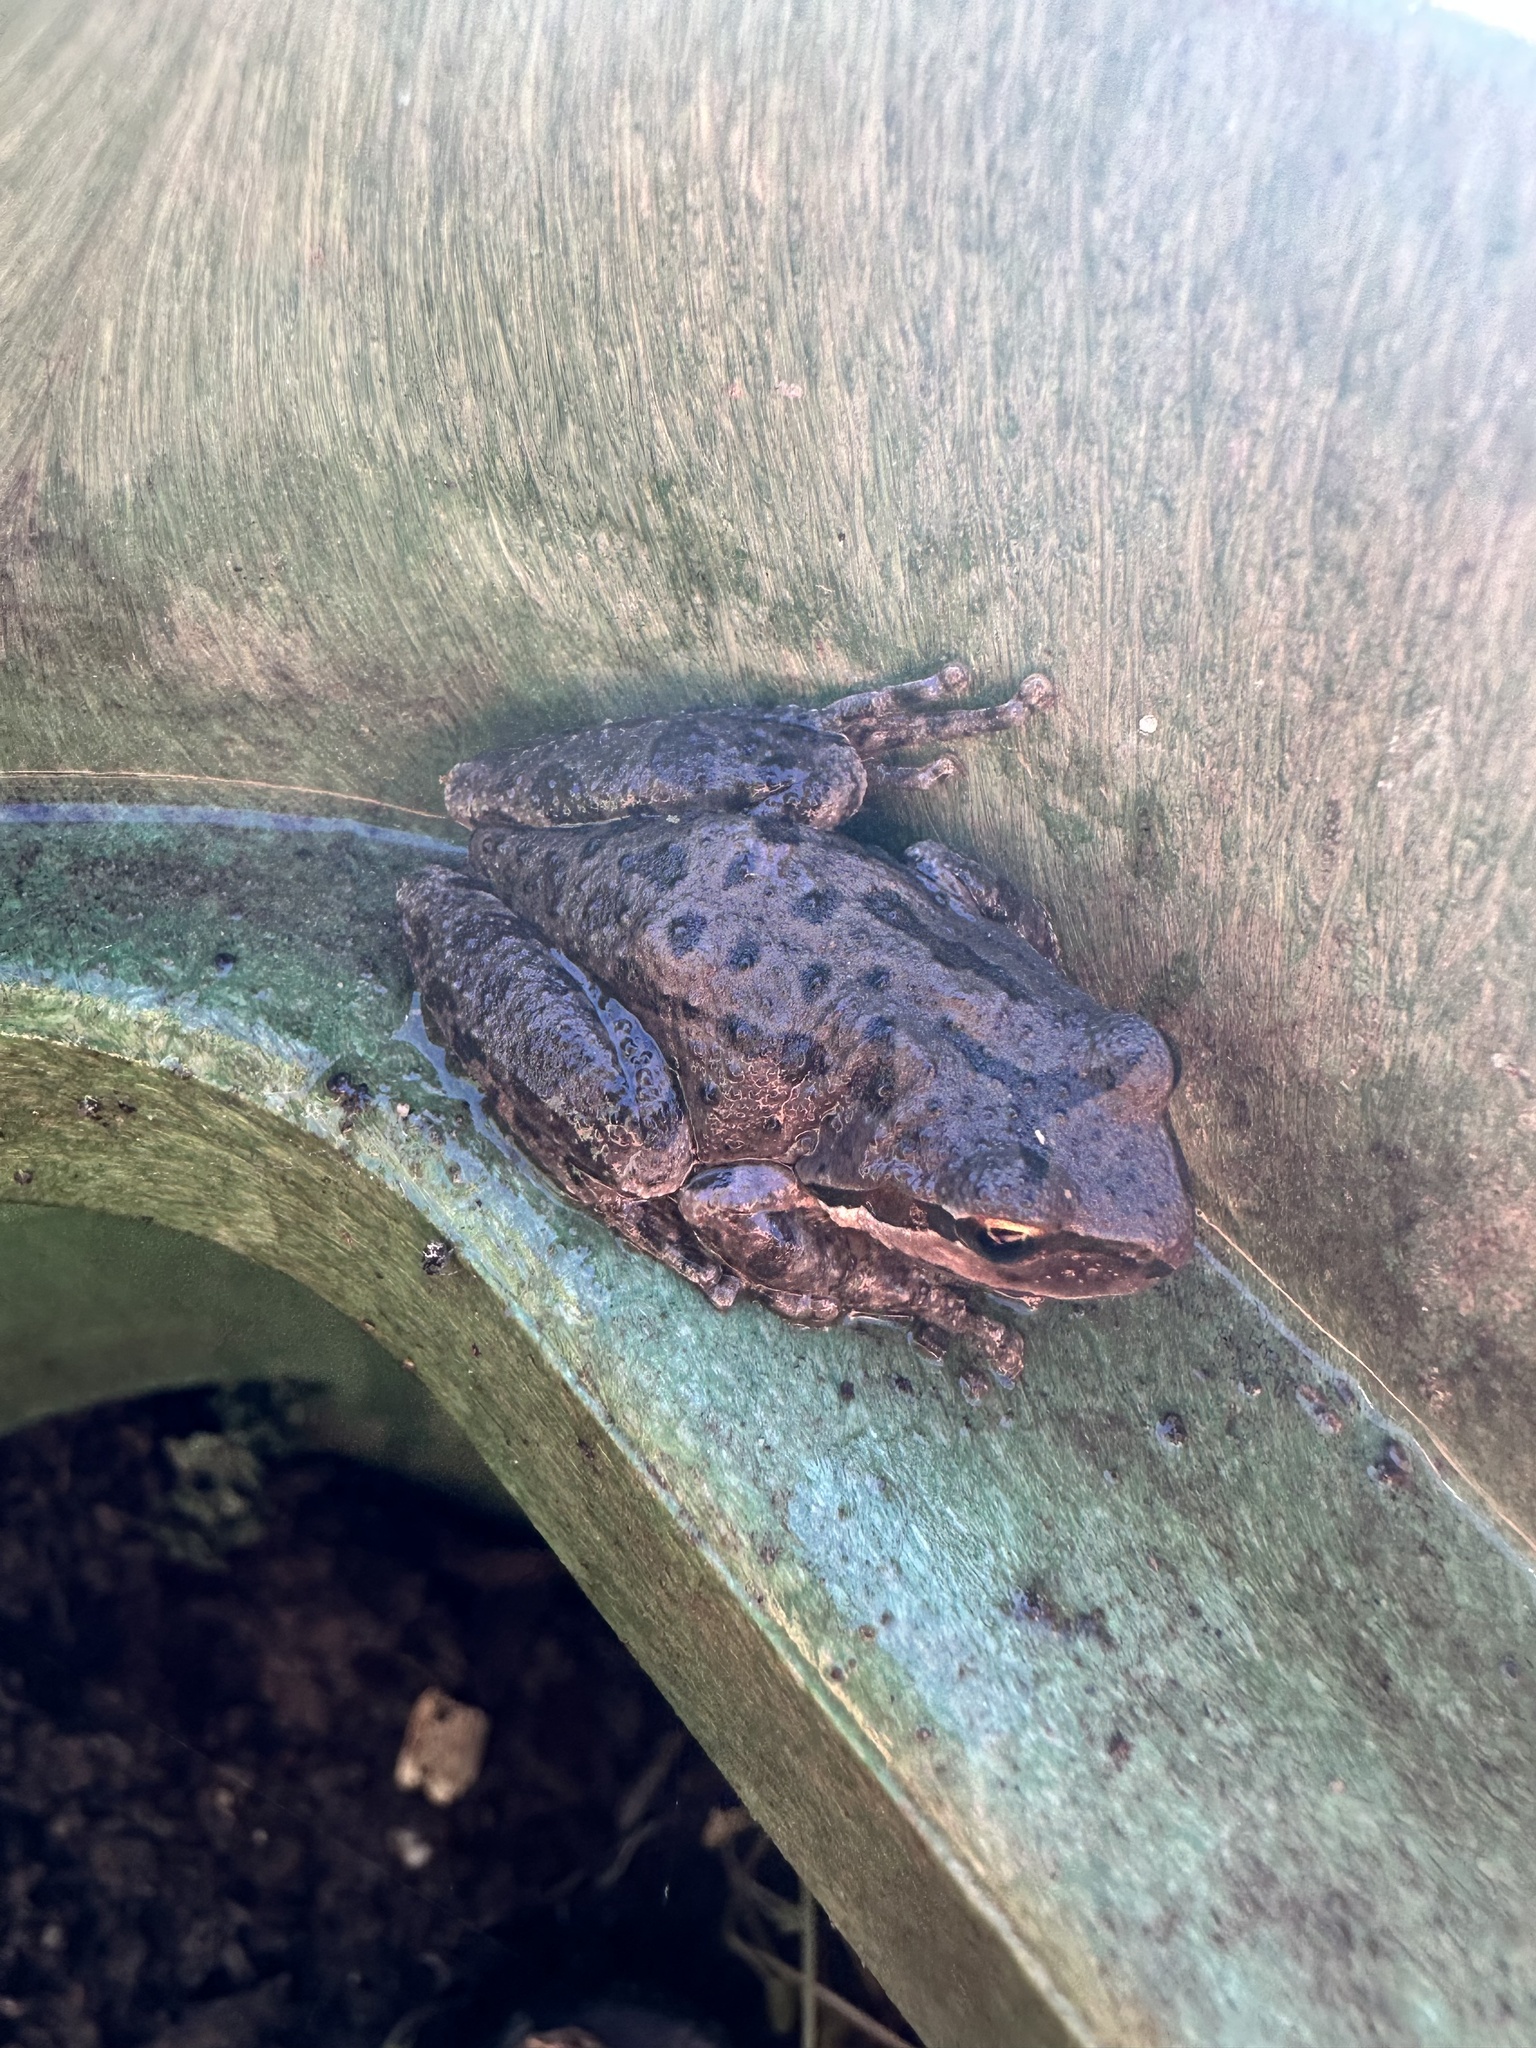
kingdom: Animalia
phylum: Chordata
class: Amphibia
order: Anura
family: Hylidae
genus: Pseudacris
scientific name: Pseudacris regilla
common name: Pacific chorus frog
